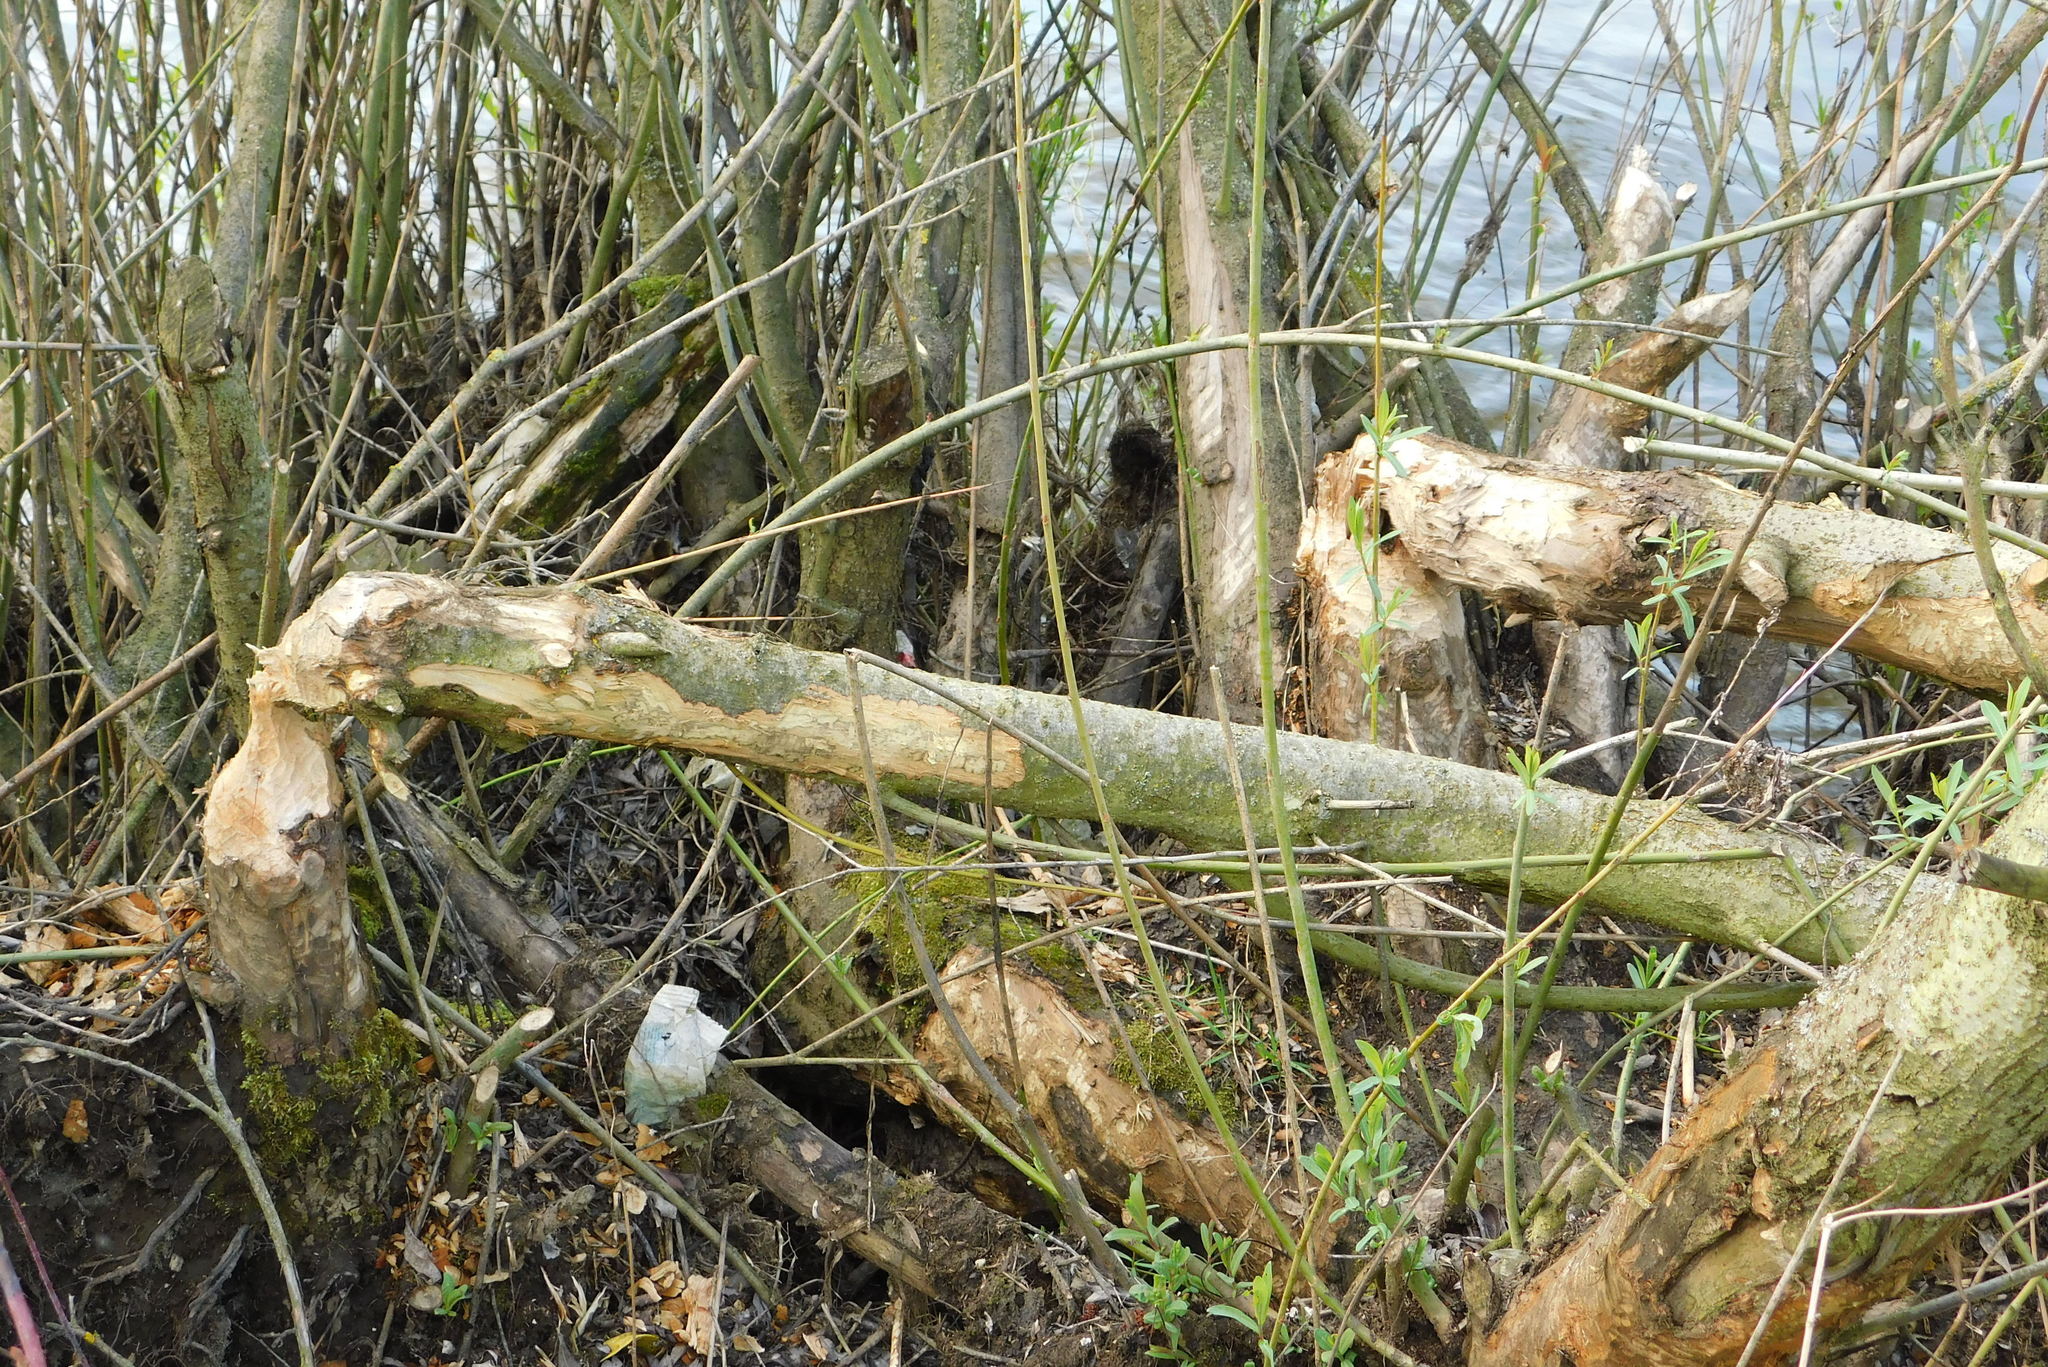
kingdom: Animalia
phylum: Chordata
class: Mammalia
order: Rodentia
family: Castoridae
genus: Castor
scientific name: Castor fiber
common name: Eurasian beaver
